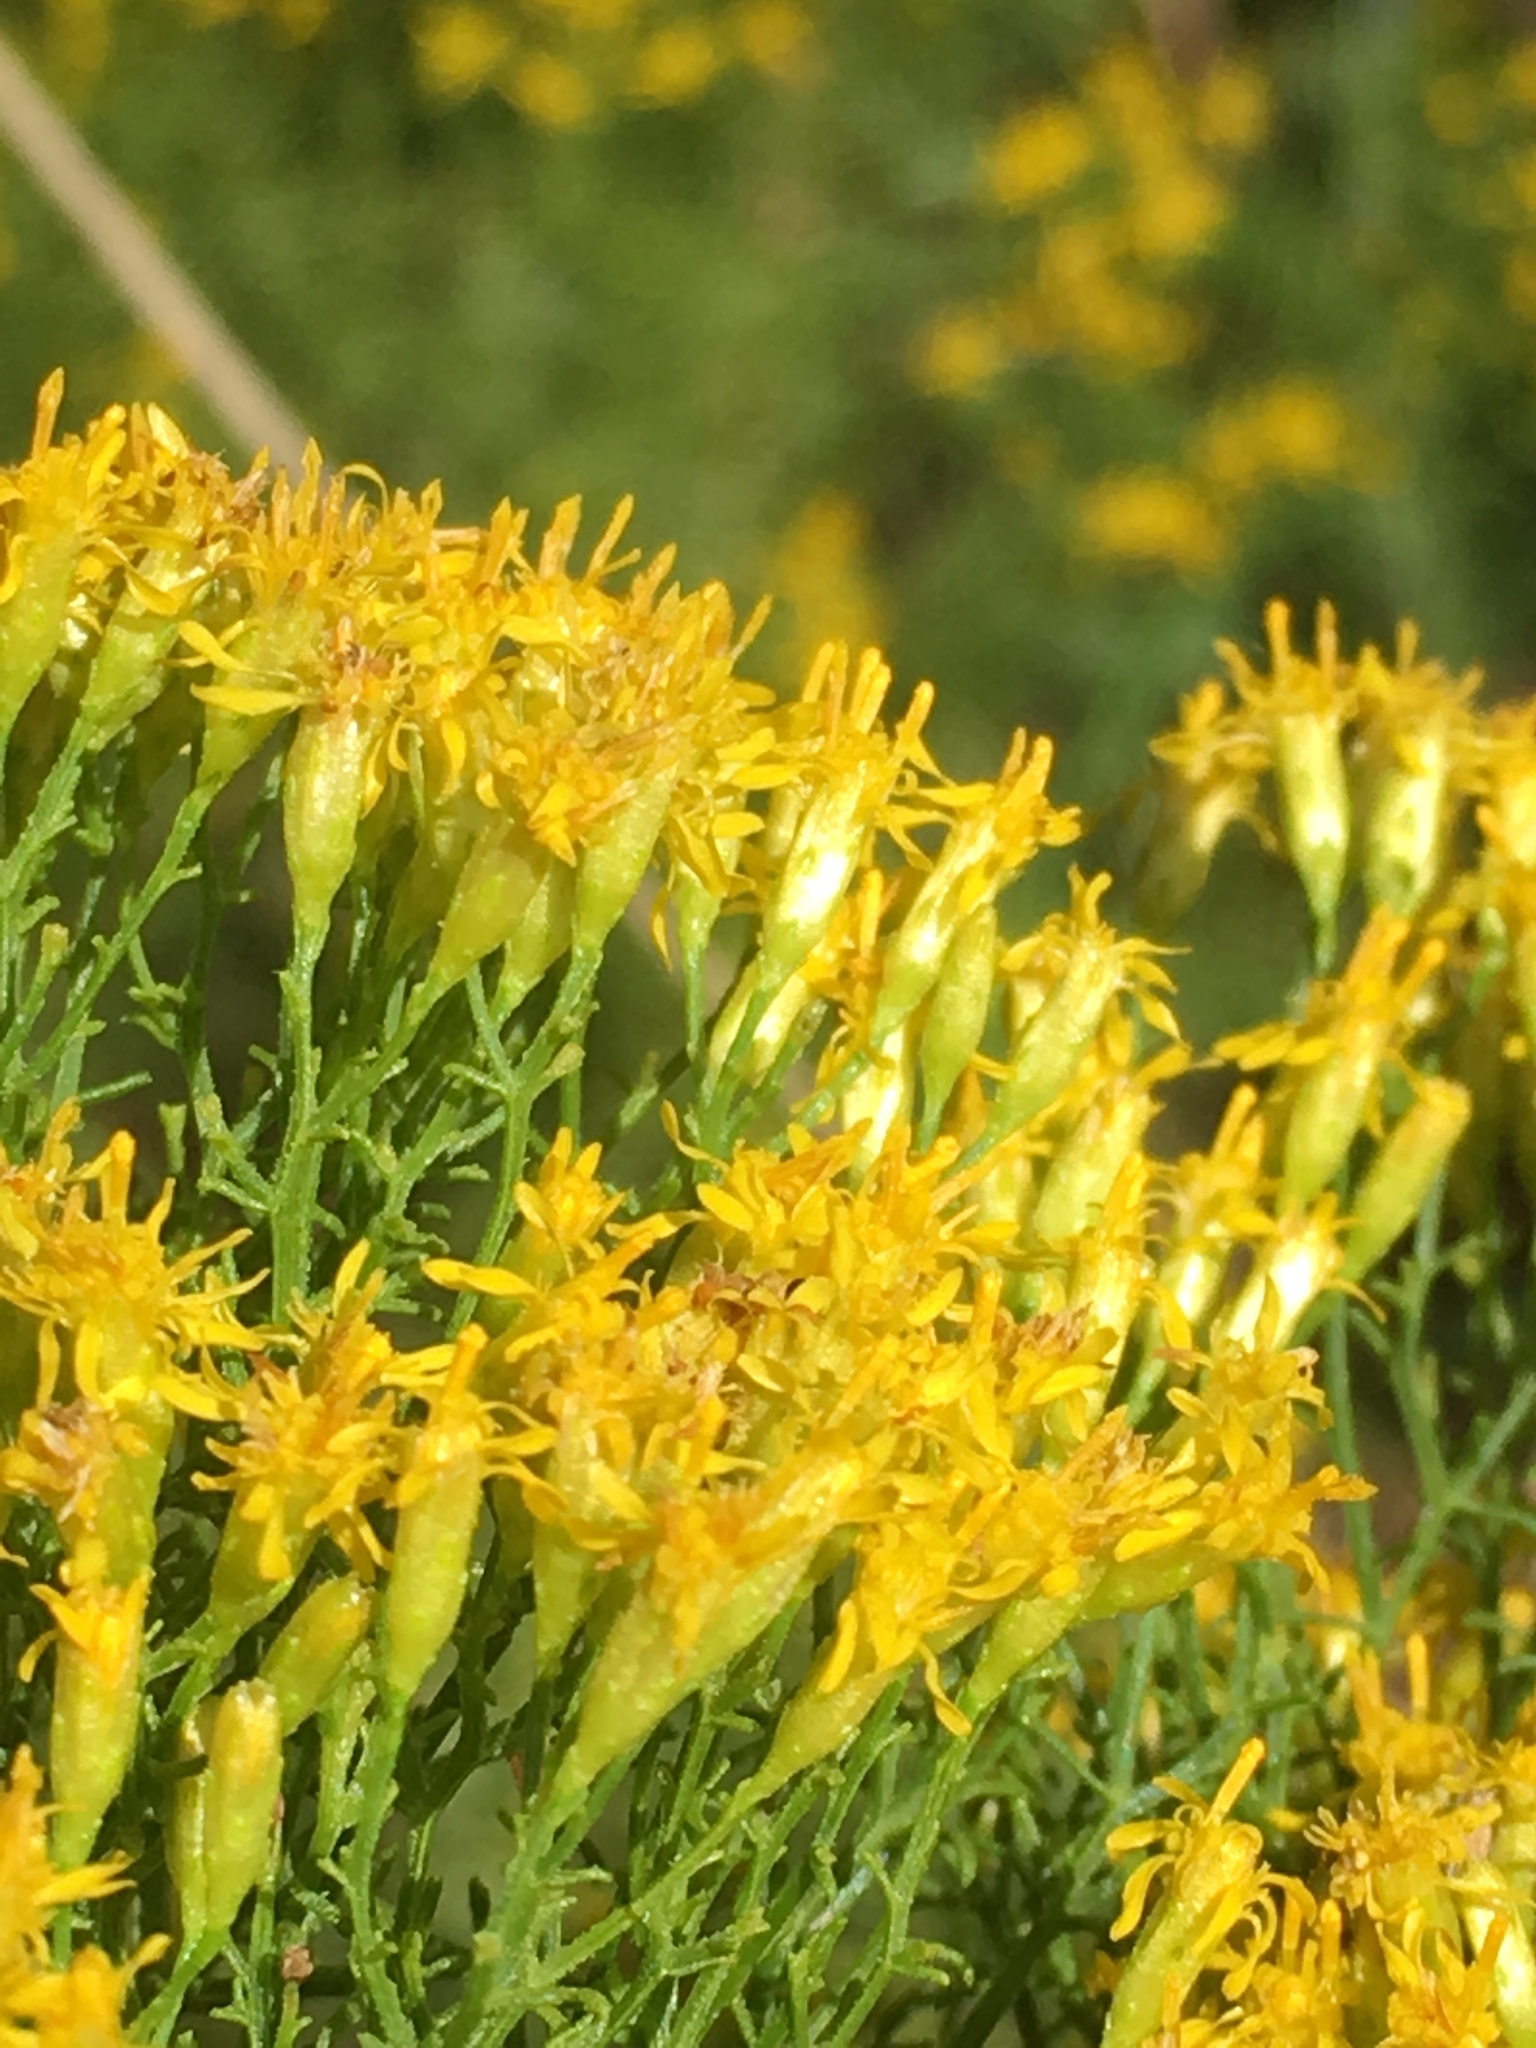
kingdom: Plantae
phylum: Tracheophyta
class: Magnoliopsida
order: Asterales
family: Asteraceae
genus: Euthamia
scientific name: Euthamia caroliniana
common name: Coastal plain goldentop
